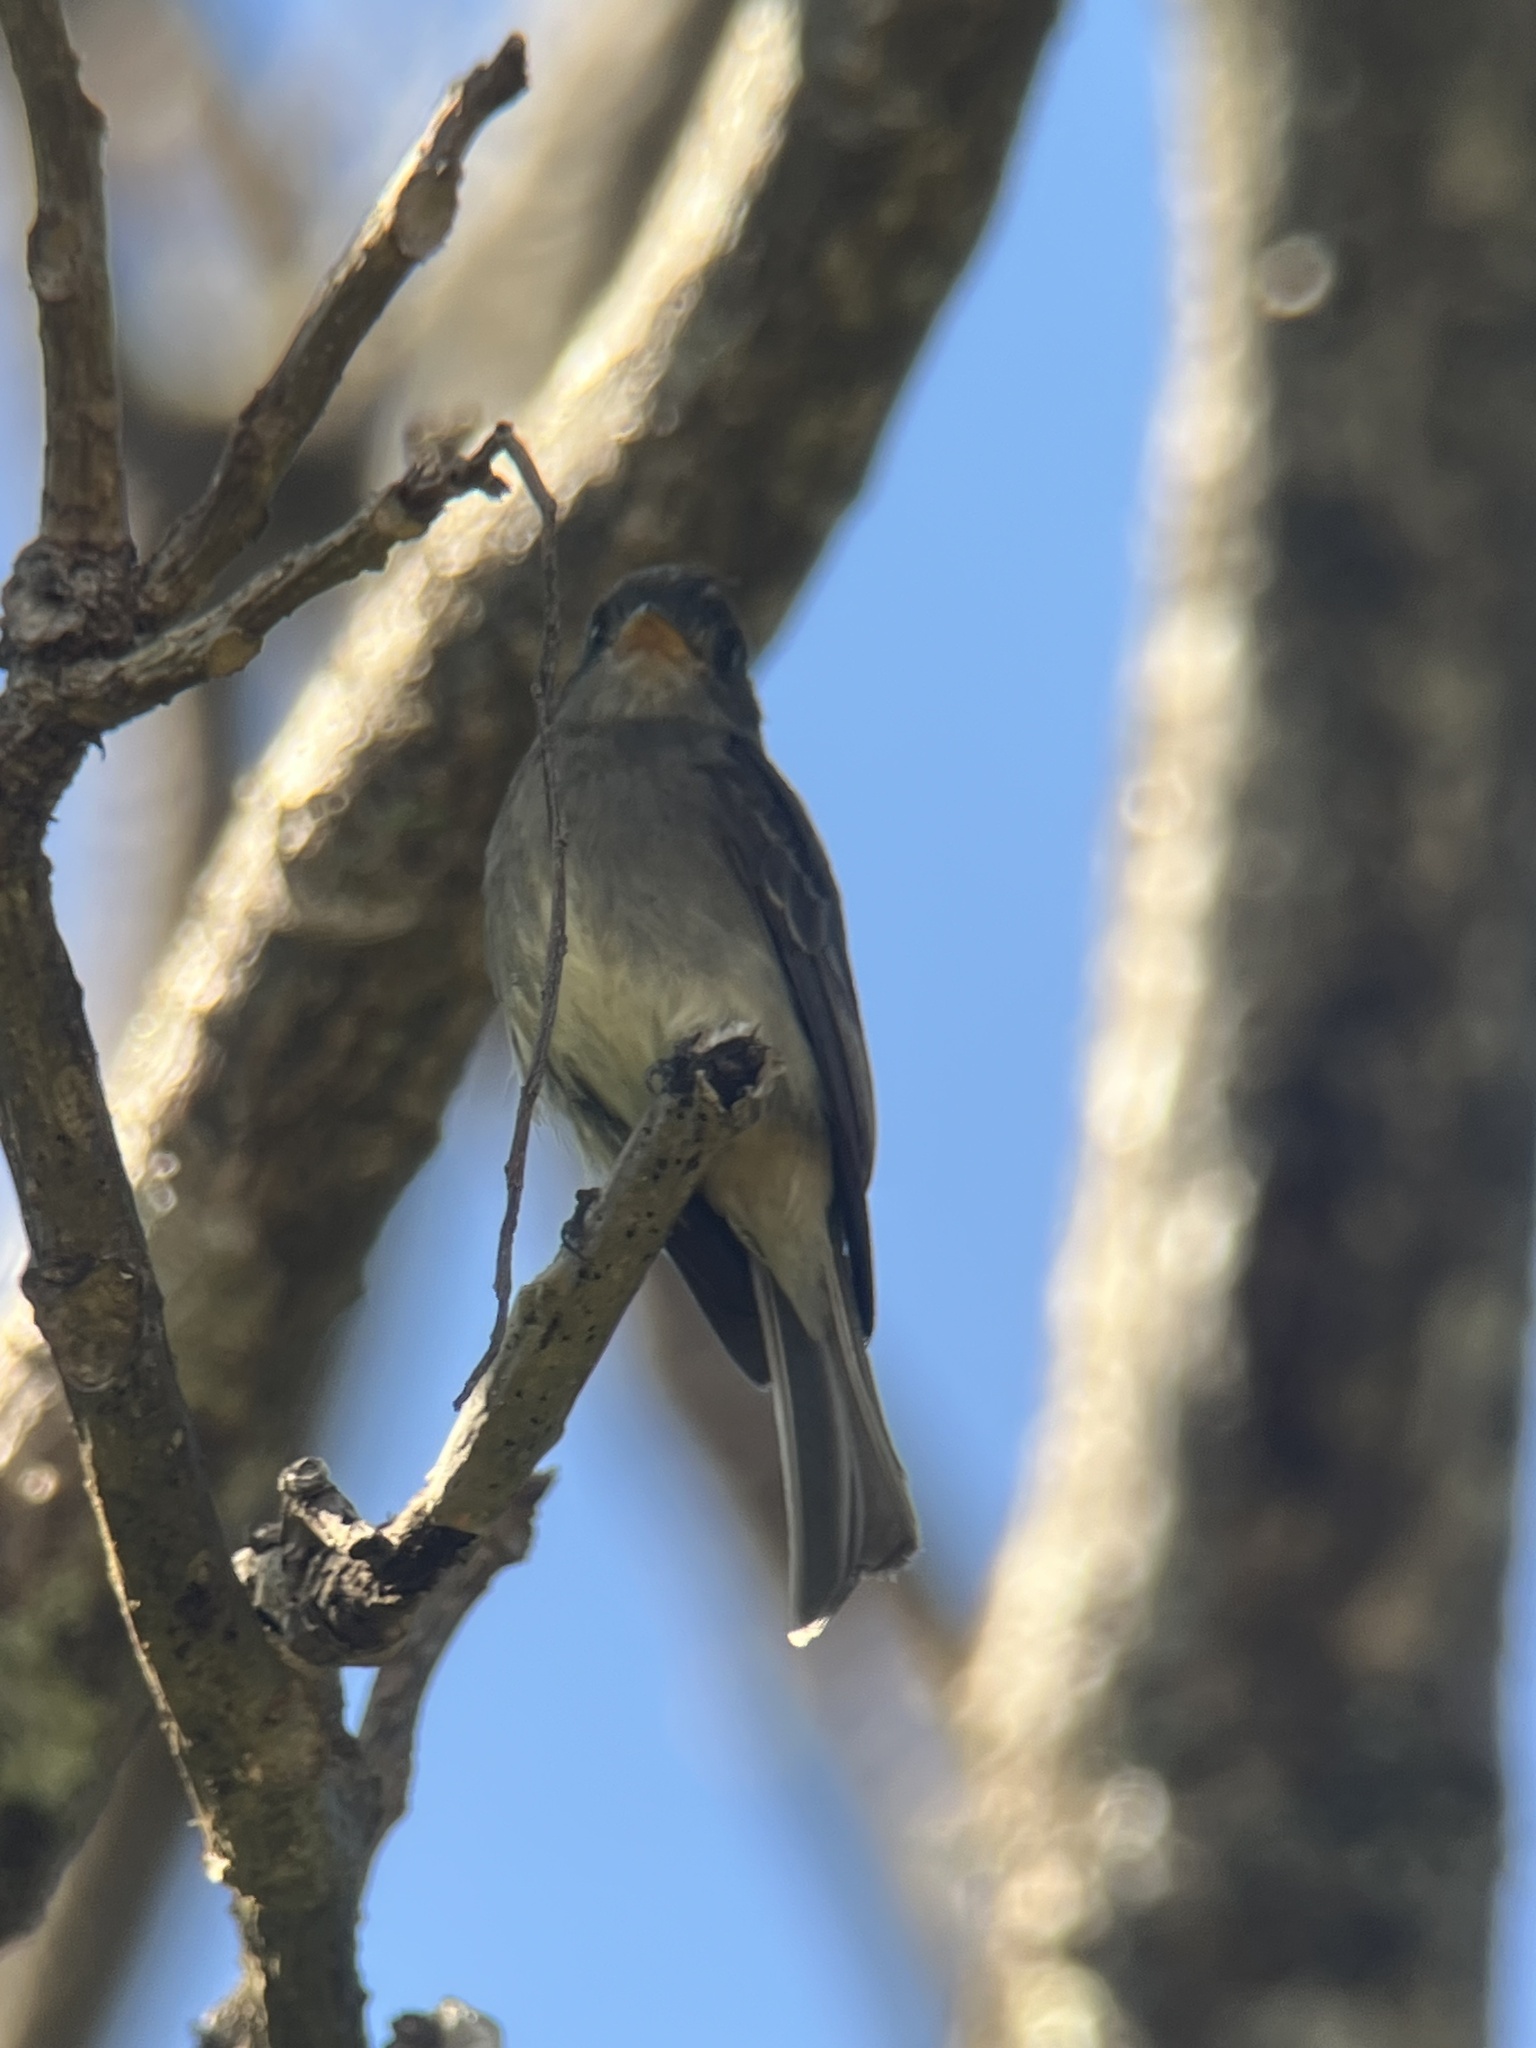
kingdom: Animalia
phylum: Chordata
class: Aves
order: Passeriformes
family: Tyrannidae
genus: Contopus
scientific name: Contopus lugubris
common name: Dark pewee
